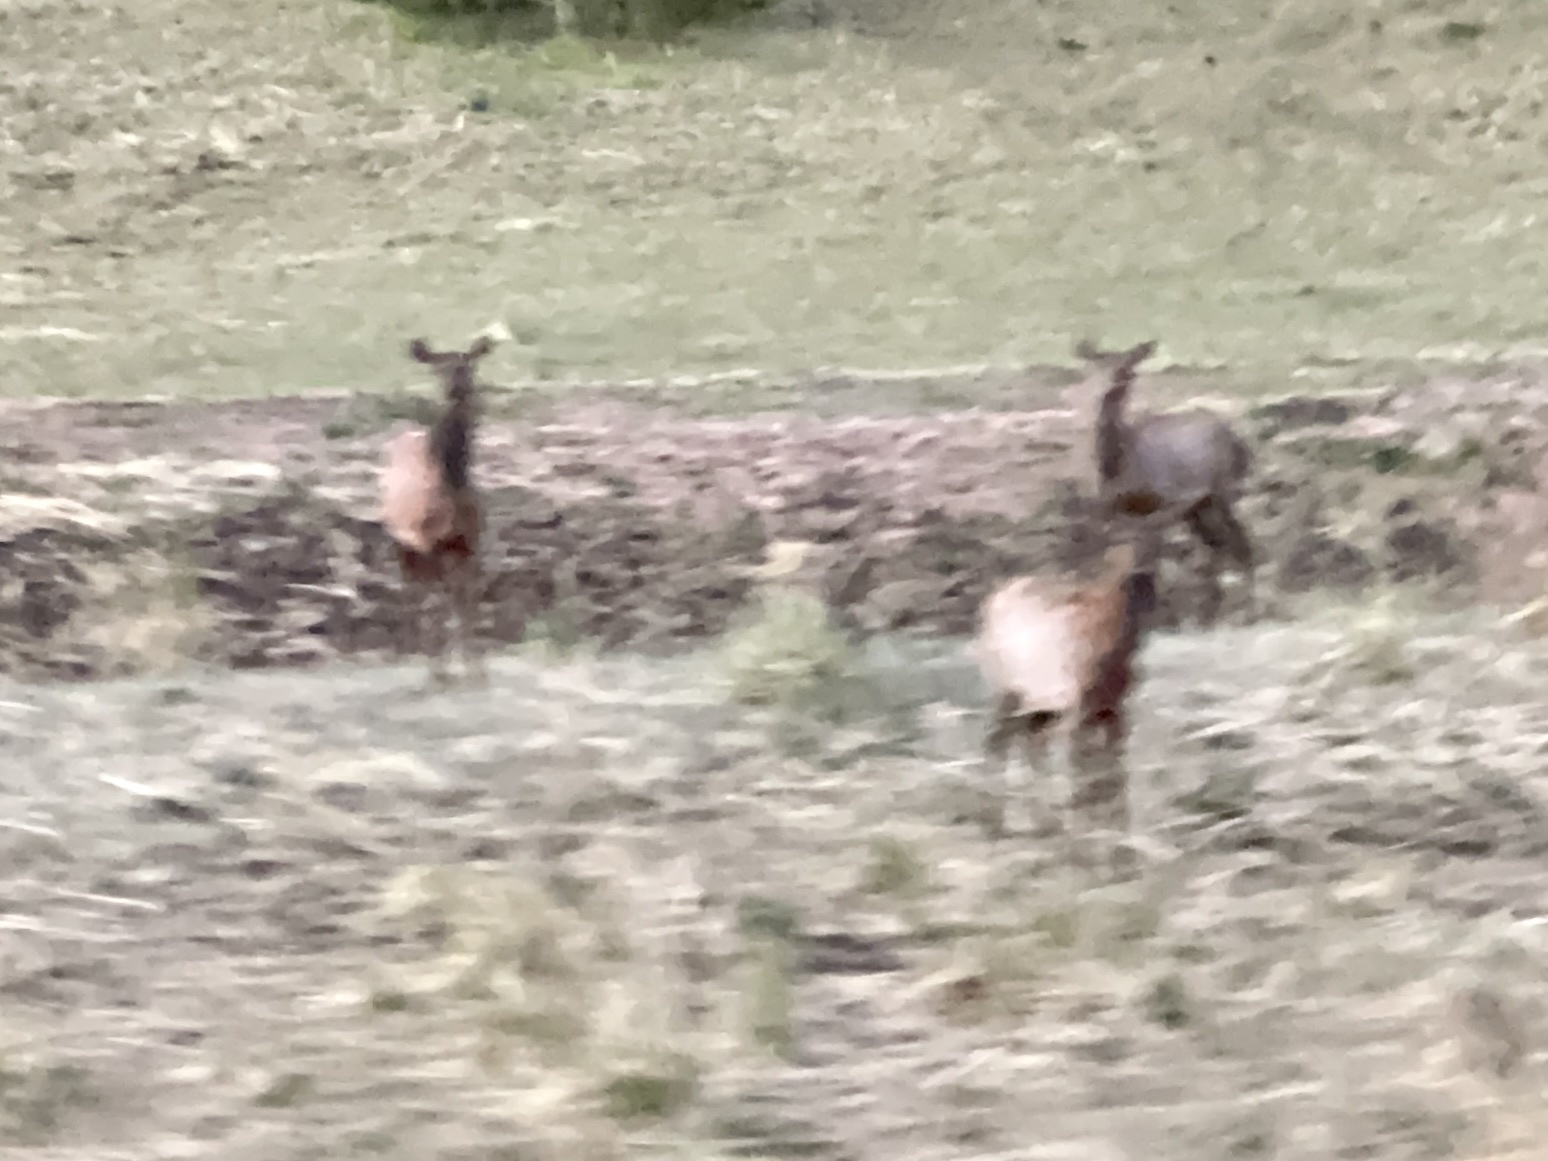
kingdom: Animalia
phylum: Chordata
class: Mammalia
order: Artiodactyla
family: Cervidae
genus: Cervus
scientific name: Cervus elaphus
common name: Red deer
